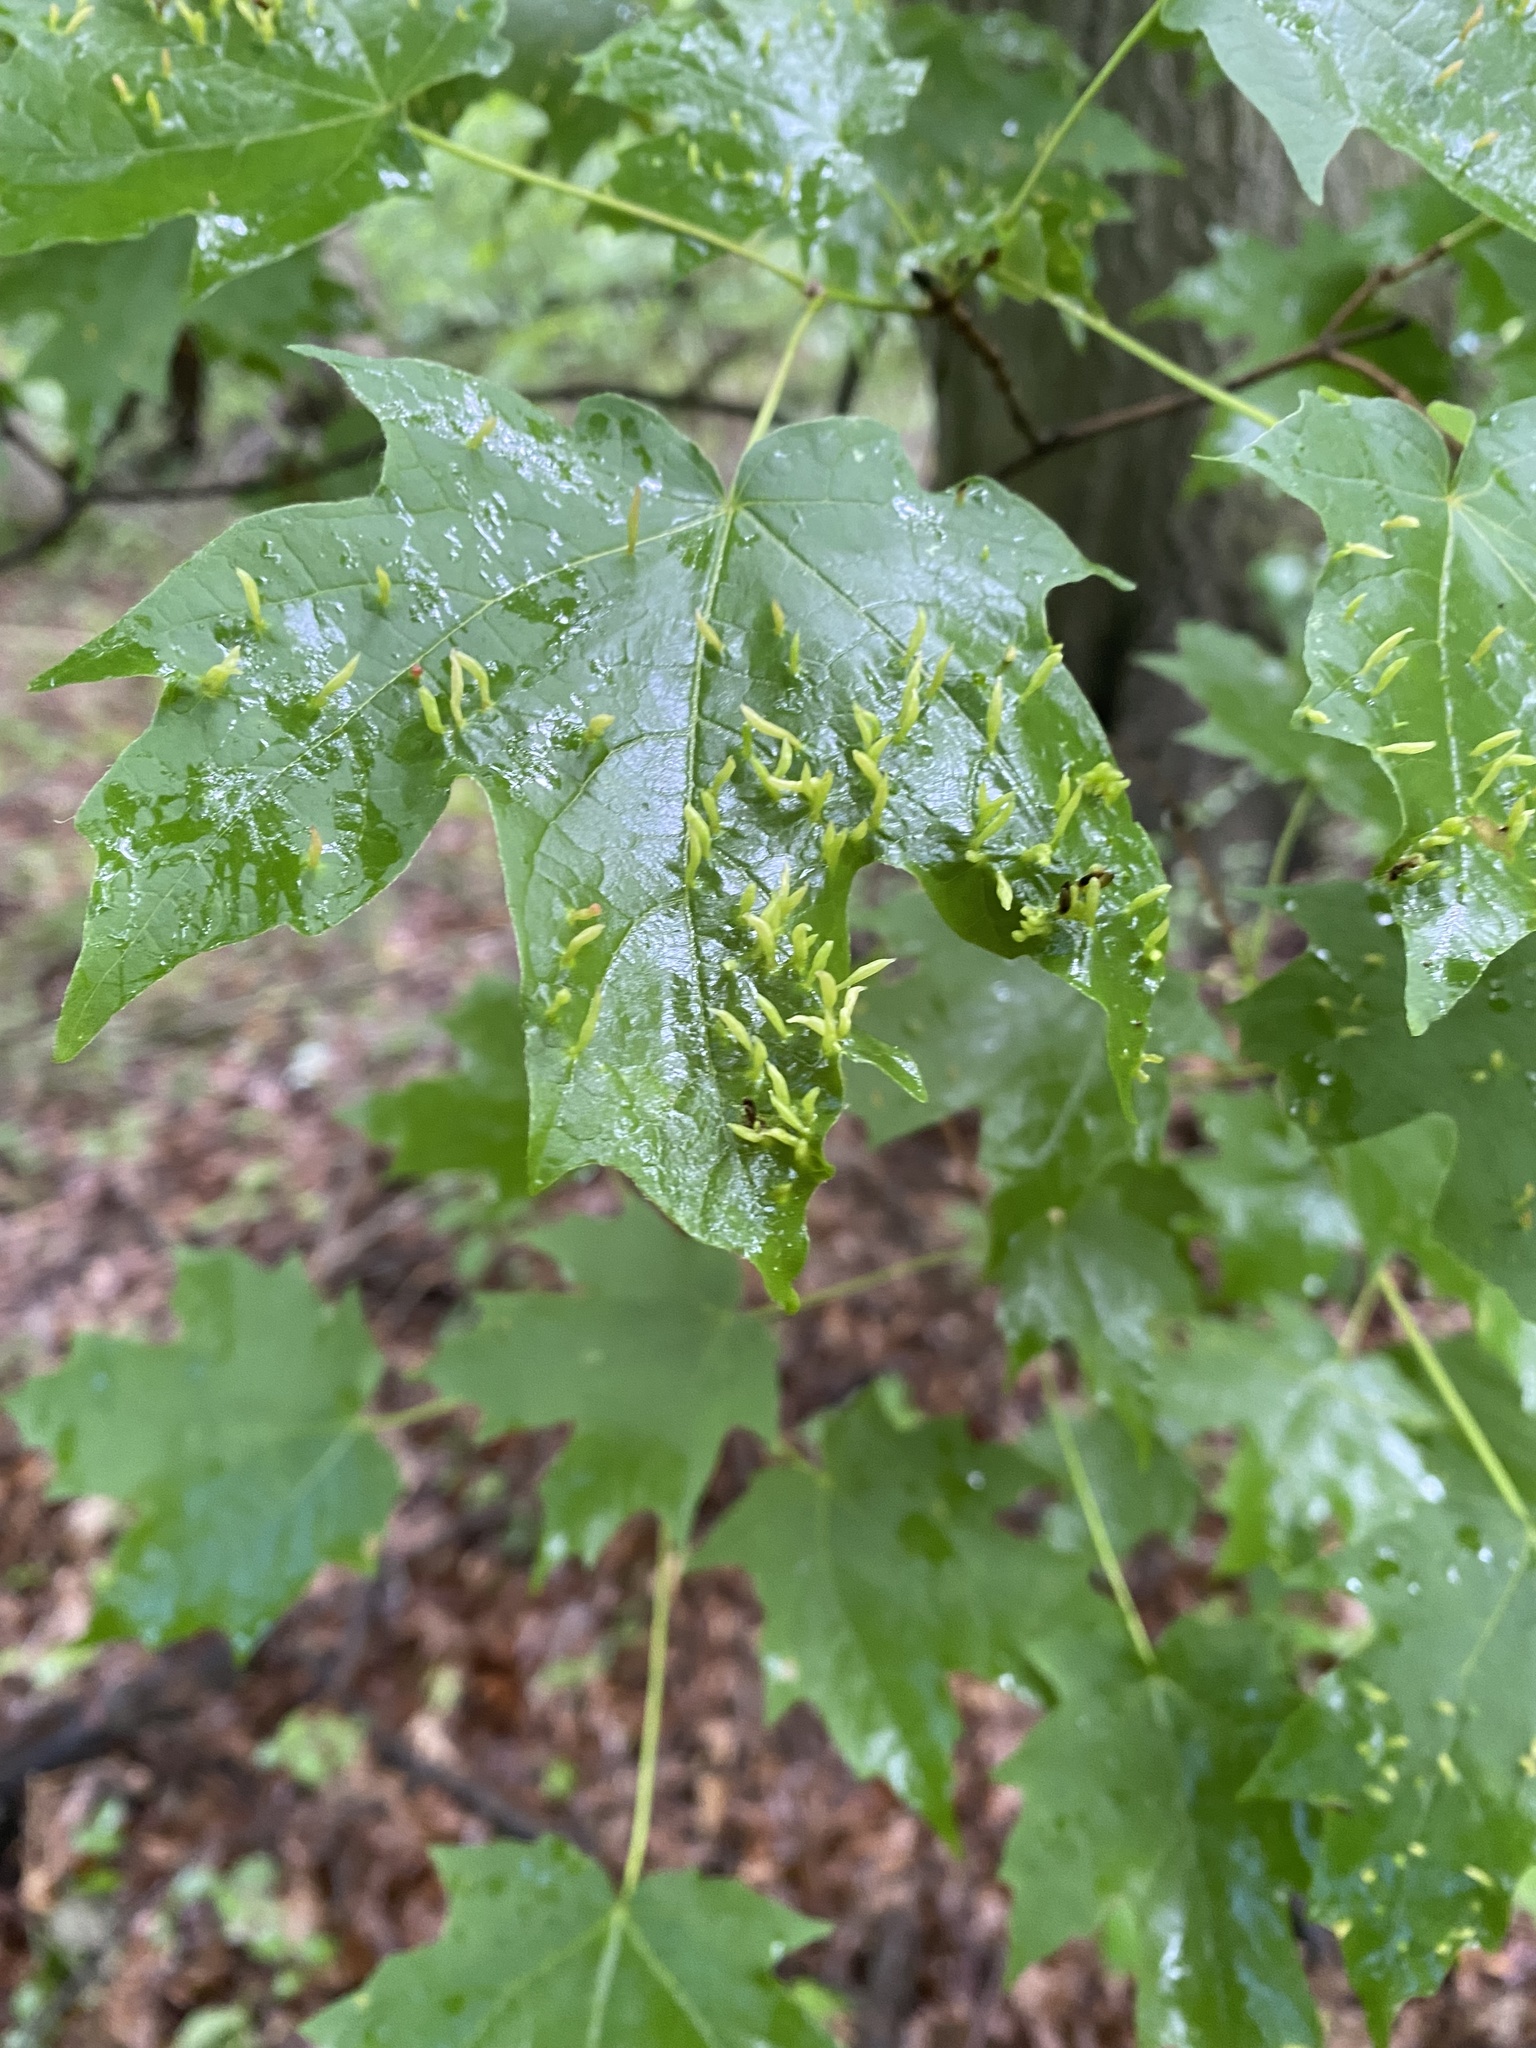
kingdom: Animalia
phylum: Arthropoda
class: Arachnida
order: Trombidiformes
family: Eriophyidae
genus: Vasates
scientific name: Vasates aceriscrumena
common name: Maple spindle gall mite
